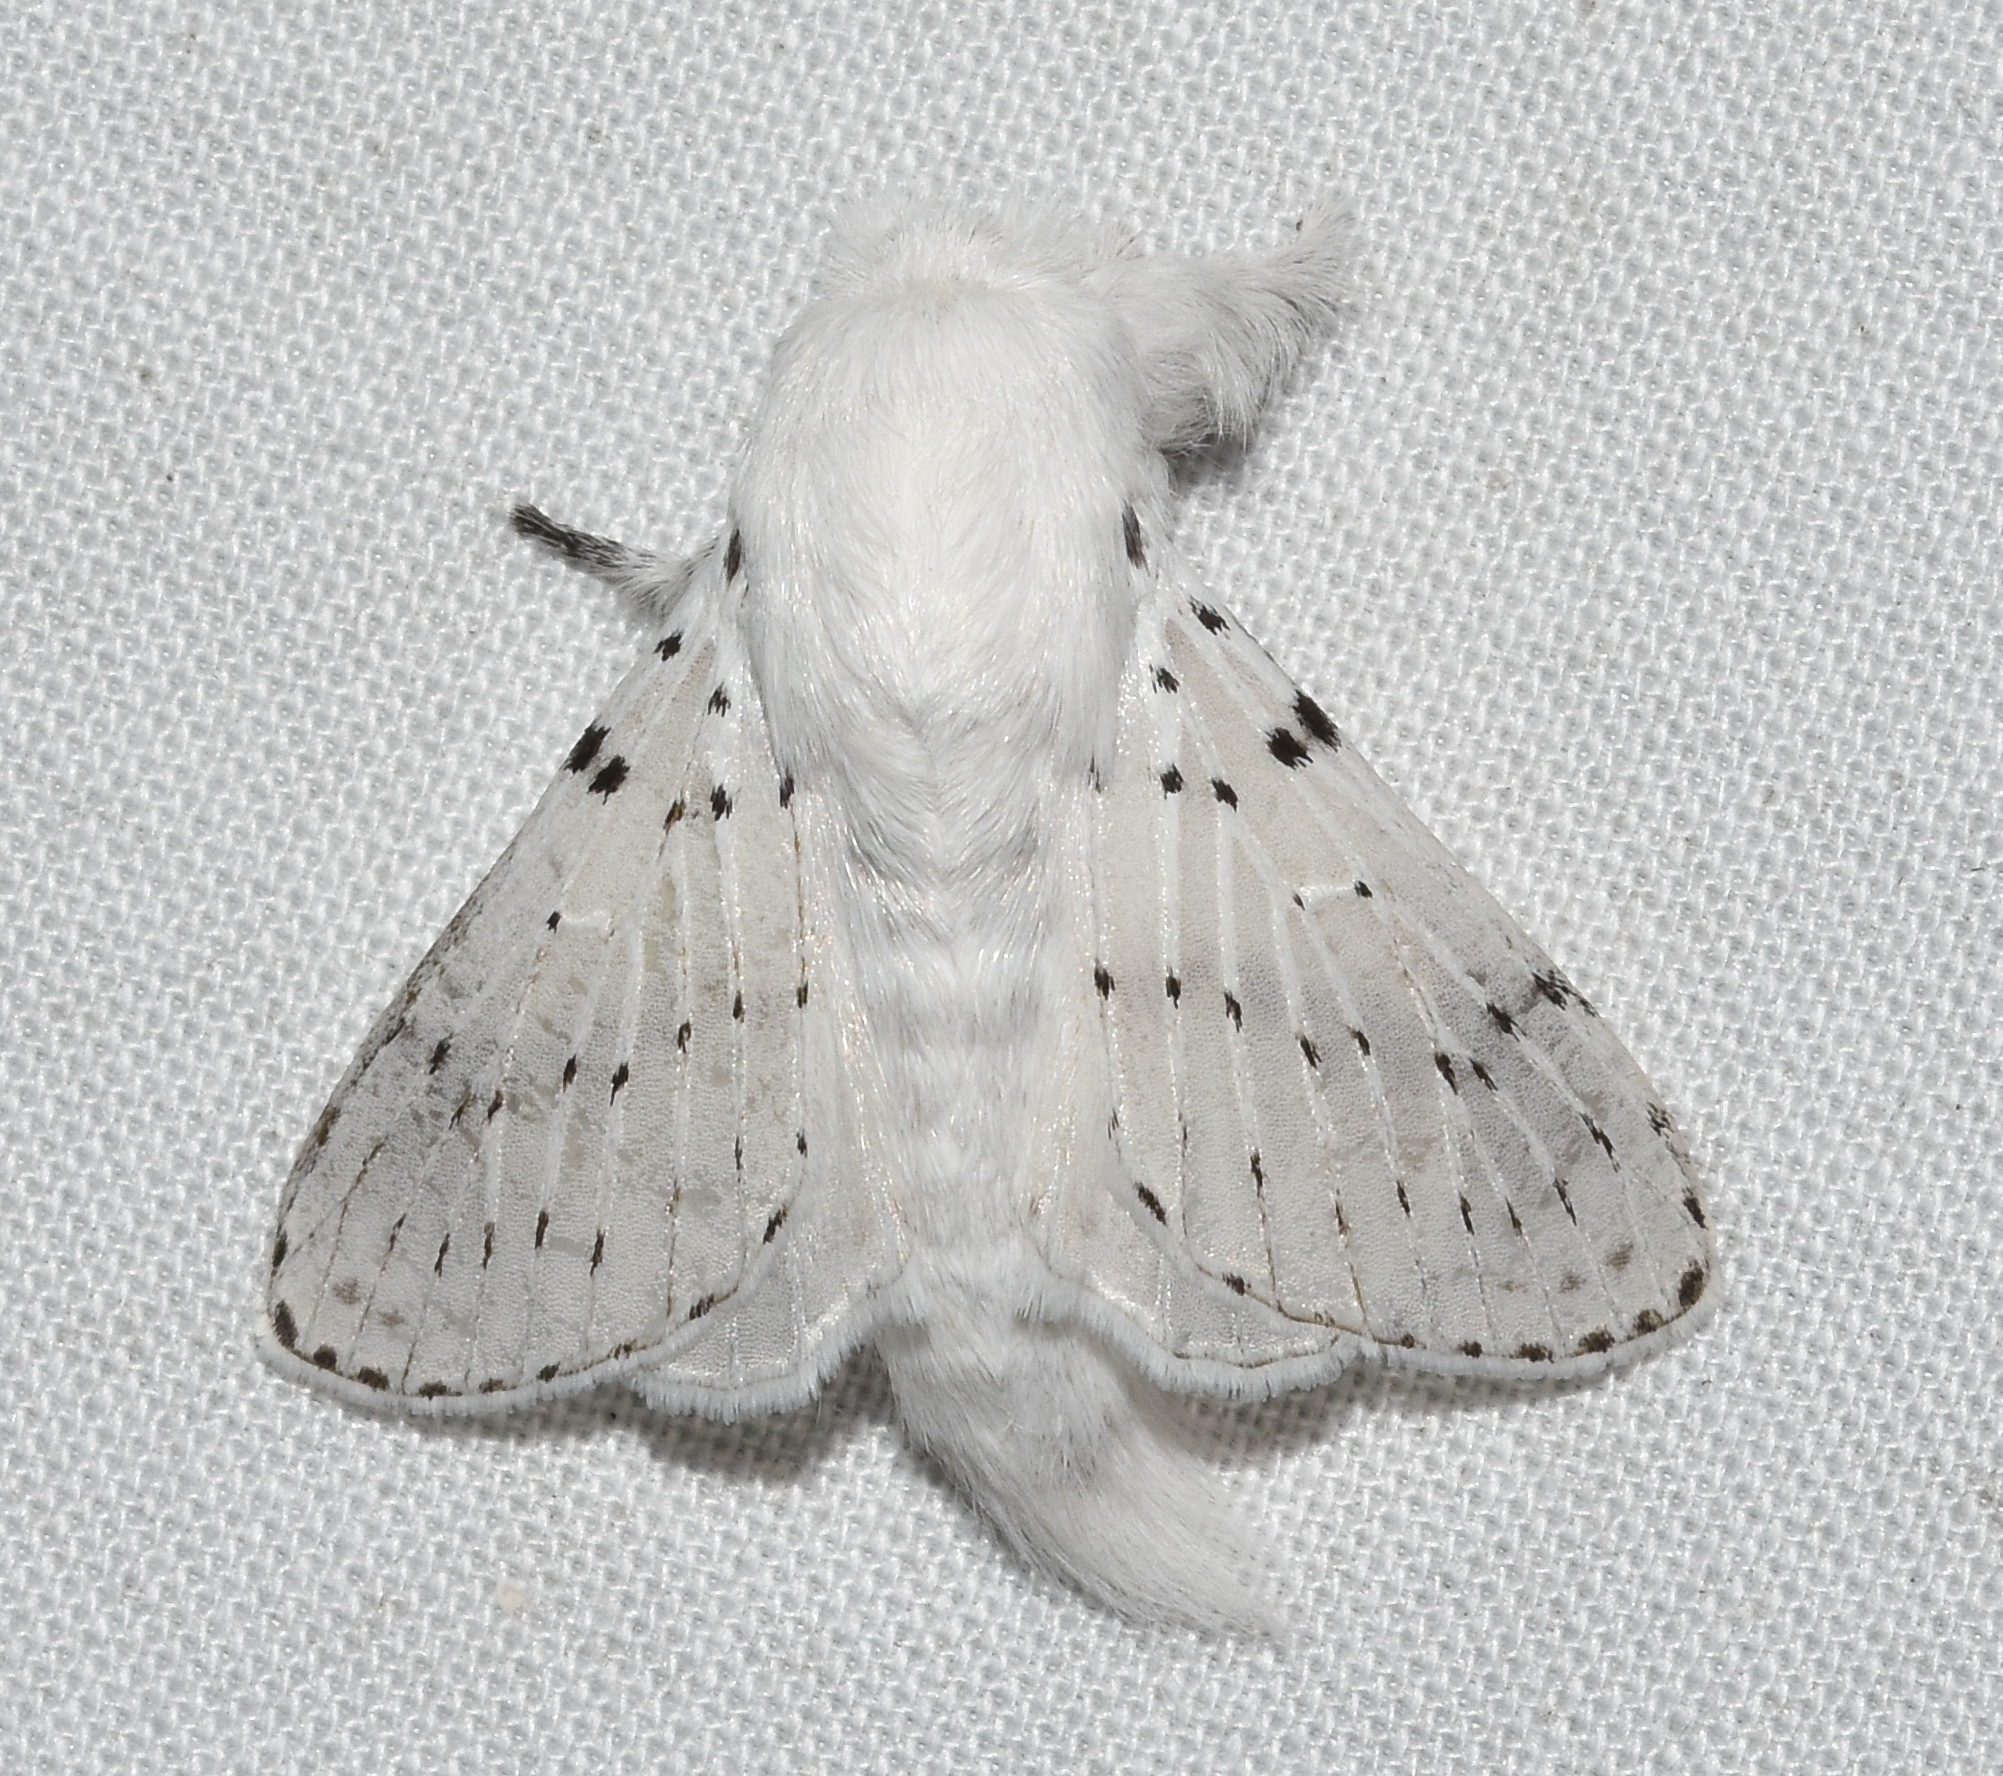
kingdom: Animalia
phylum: Arthropoda
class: Insecta
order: Lepidoptera
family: Lasiocampidae
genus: Artace
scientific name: Artace cribrarius
